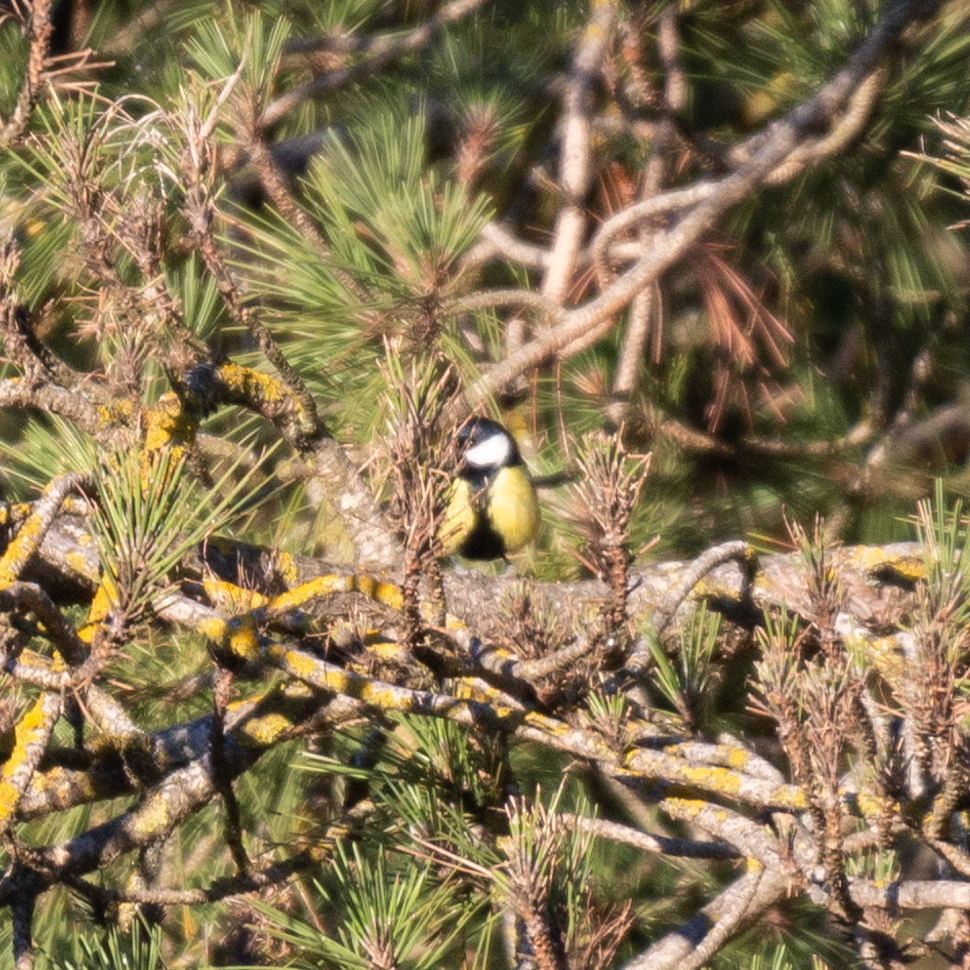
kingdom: Animalia
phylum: Chordata
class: Aves
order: Passeriformes
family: Paridae
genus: Parus
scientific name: Parus major
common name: Great tit
